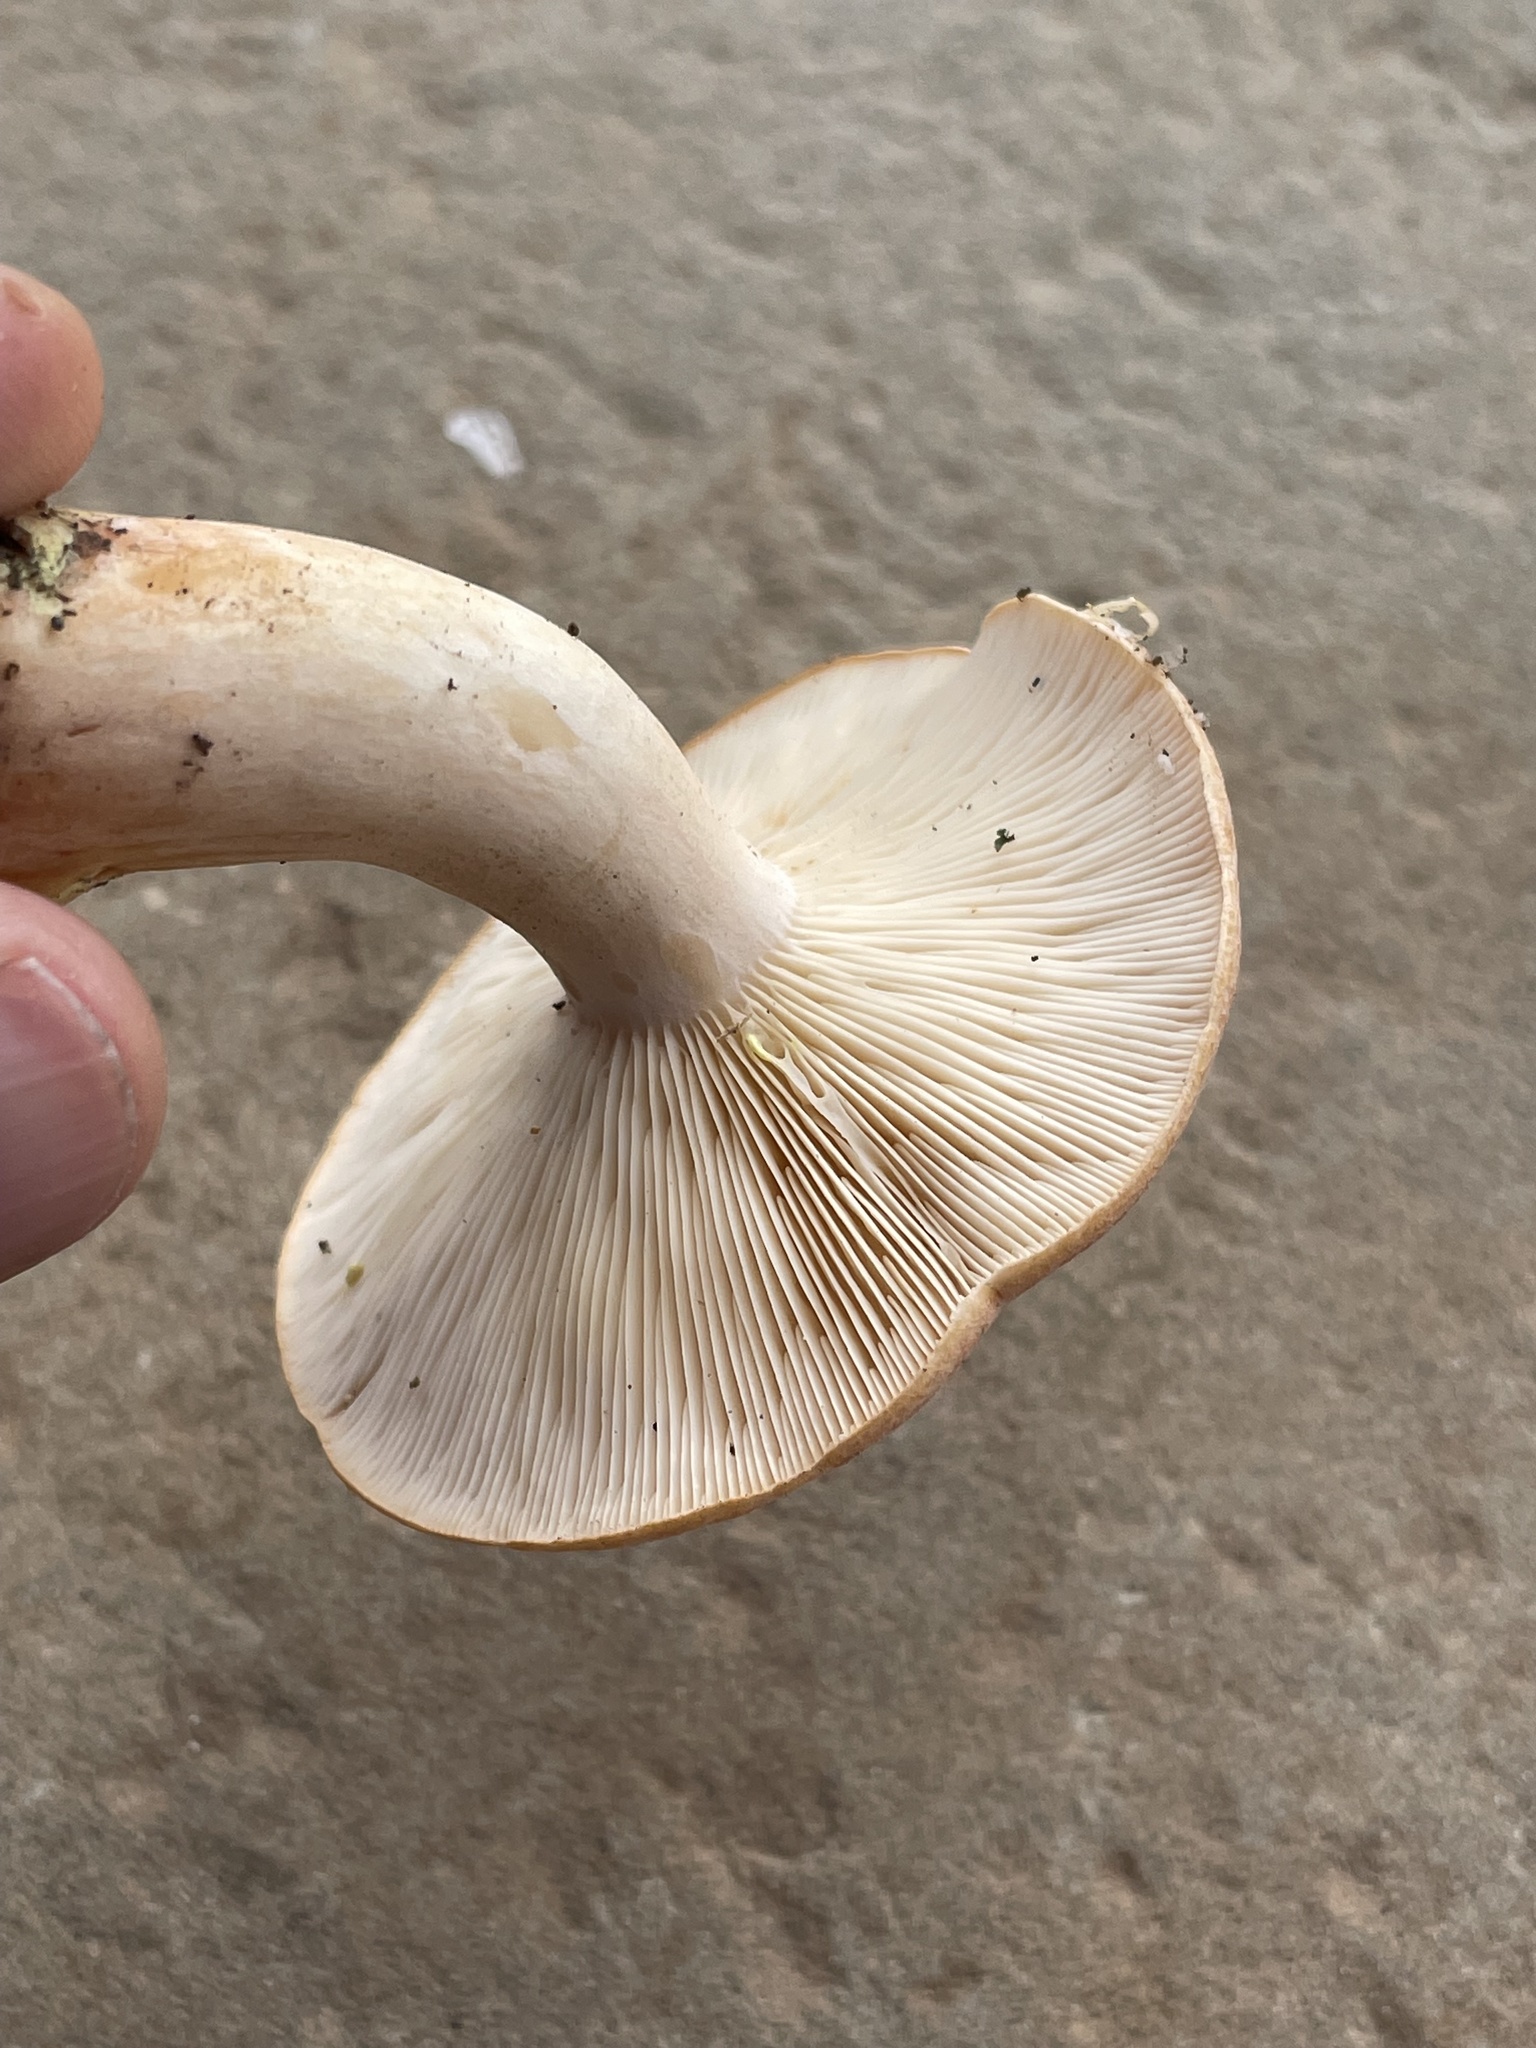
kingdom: Fungi
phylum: Basidiomycota
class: Agaricomycetes
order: Russulales
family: Russulaceae
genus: Lactarius
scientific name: Lactarius chrysorrheus
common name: Yellowdrop milkcap
